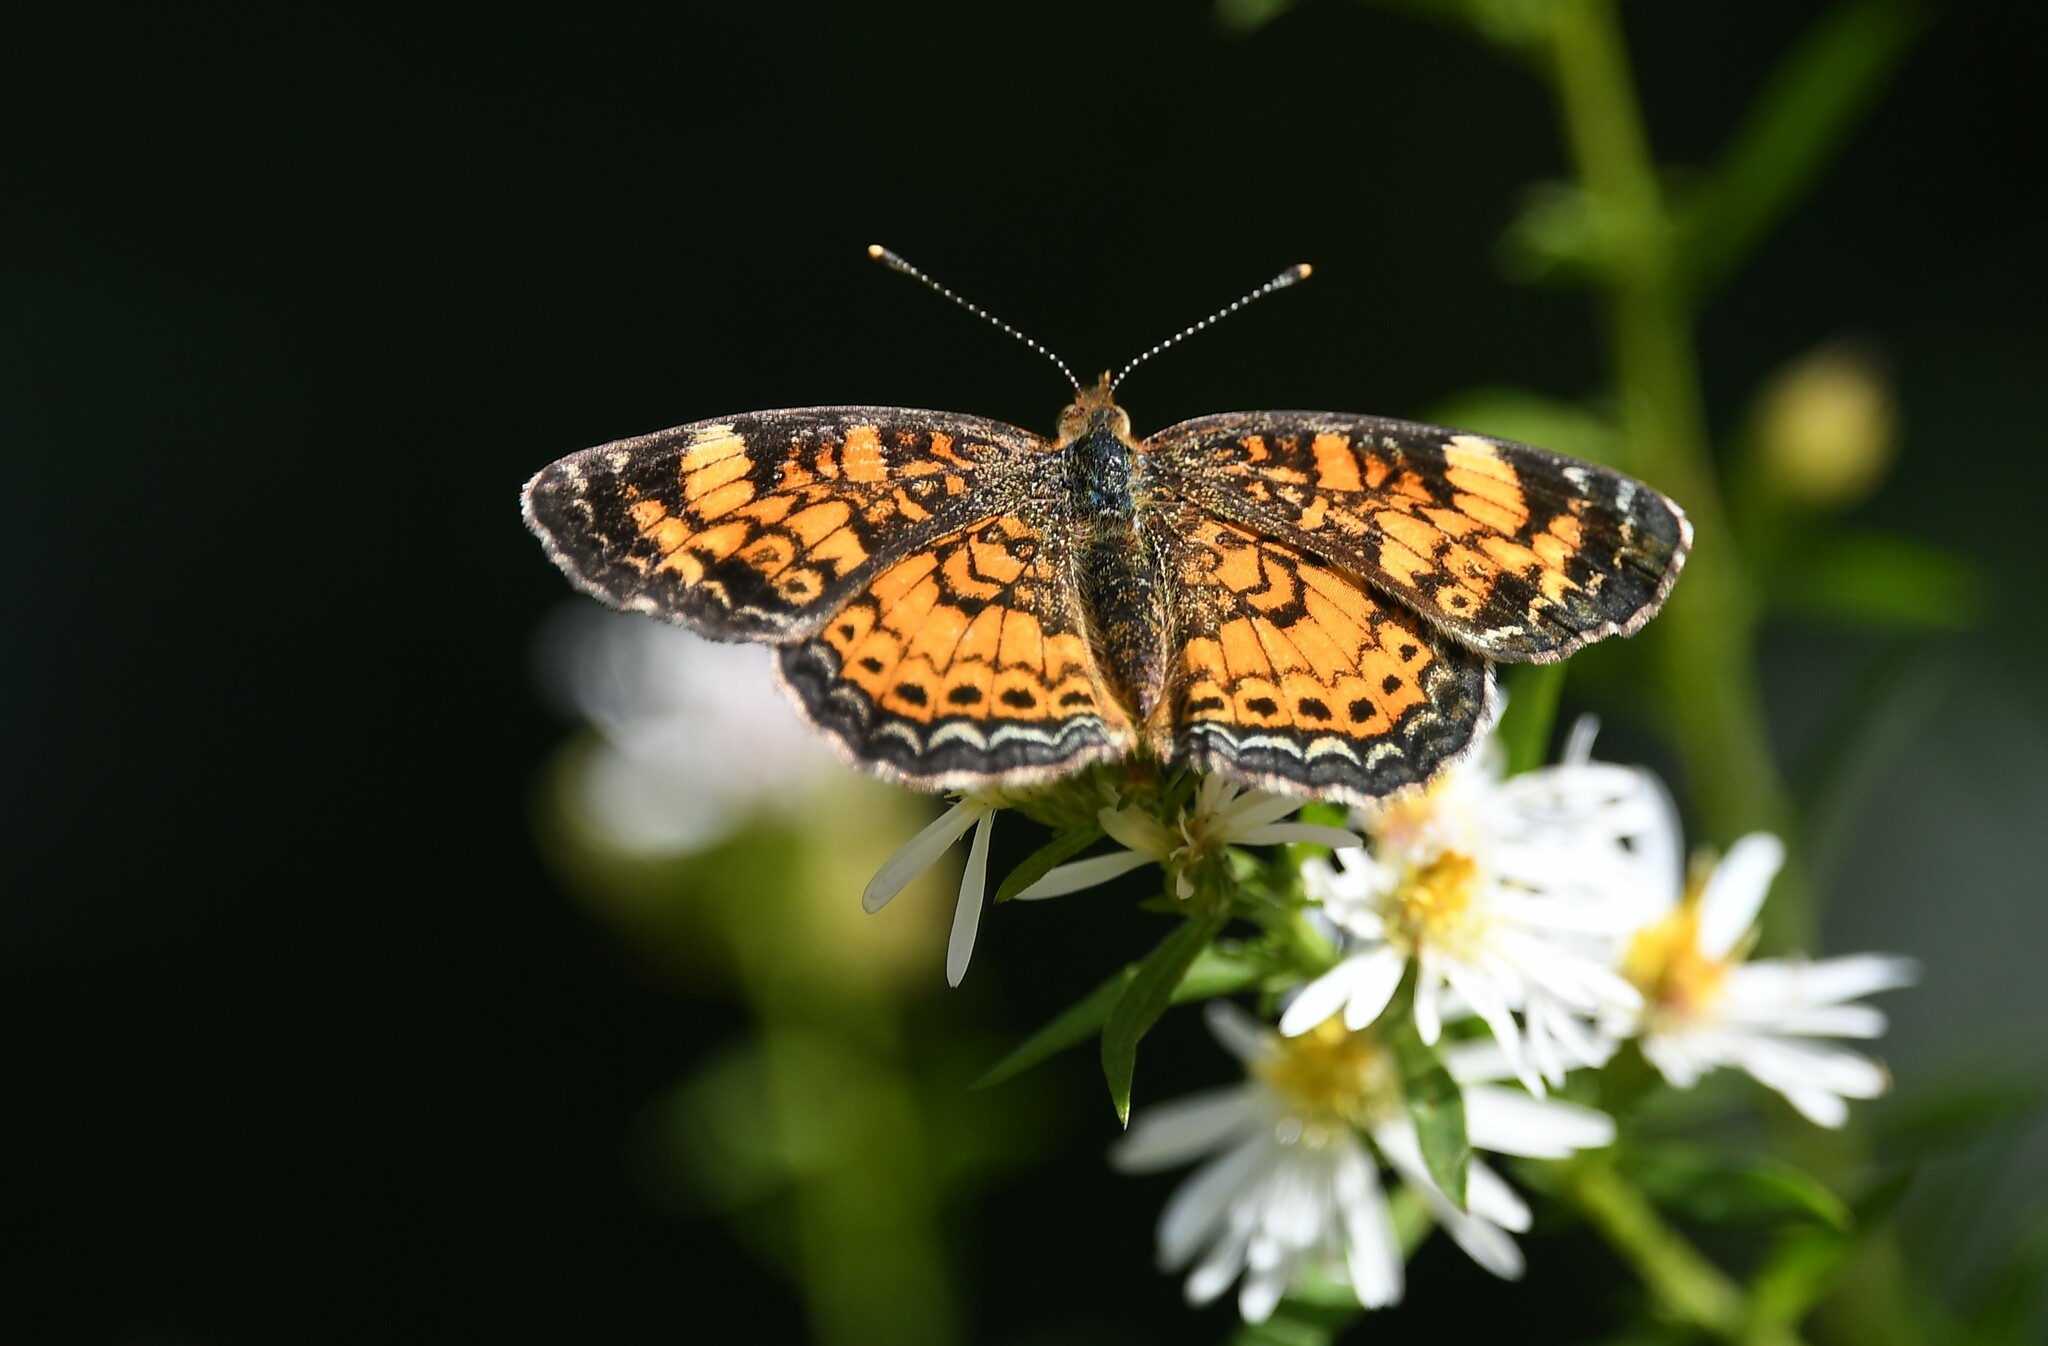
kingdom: Animalia
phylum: Arthropoda
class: Insecta
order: Lepidoptera
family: Nymphalidae
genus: Phyciodes
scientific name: Phyciodes tharos
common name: Pearl crescent
